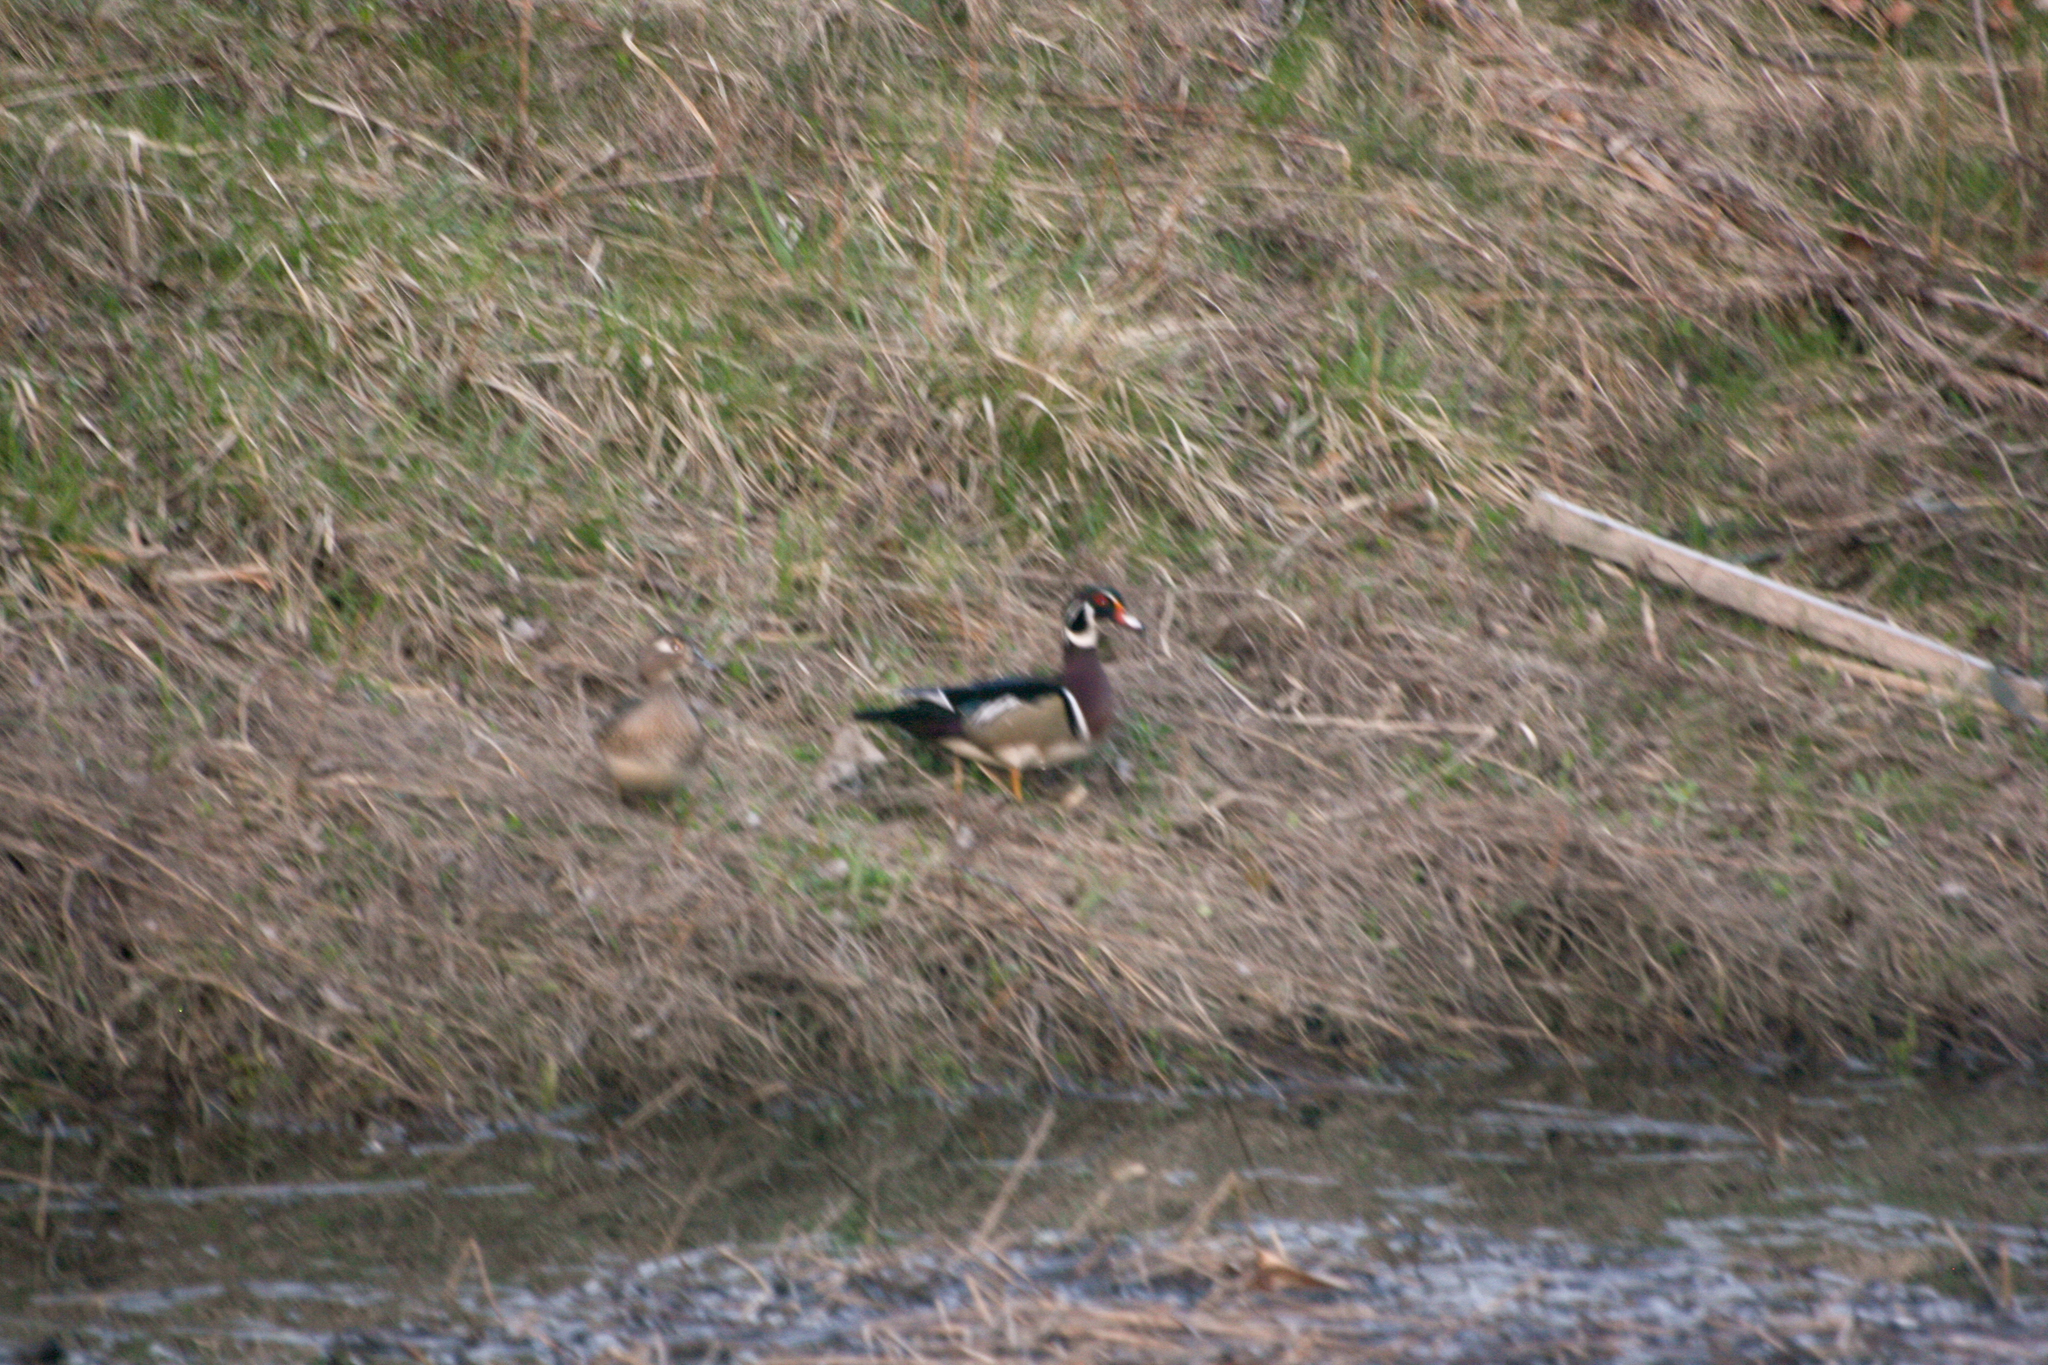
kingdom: Animalia
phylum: Chordata
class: Aves
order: Anseriformes
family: Anatidae
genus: Aix
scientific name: Aix sponsa
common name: Wood duck
